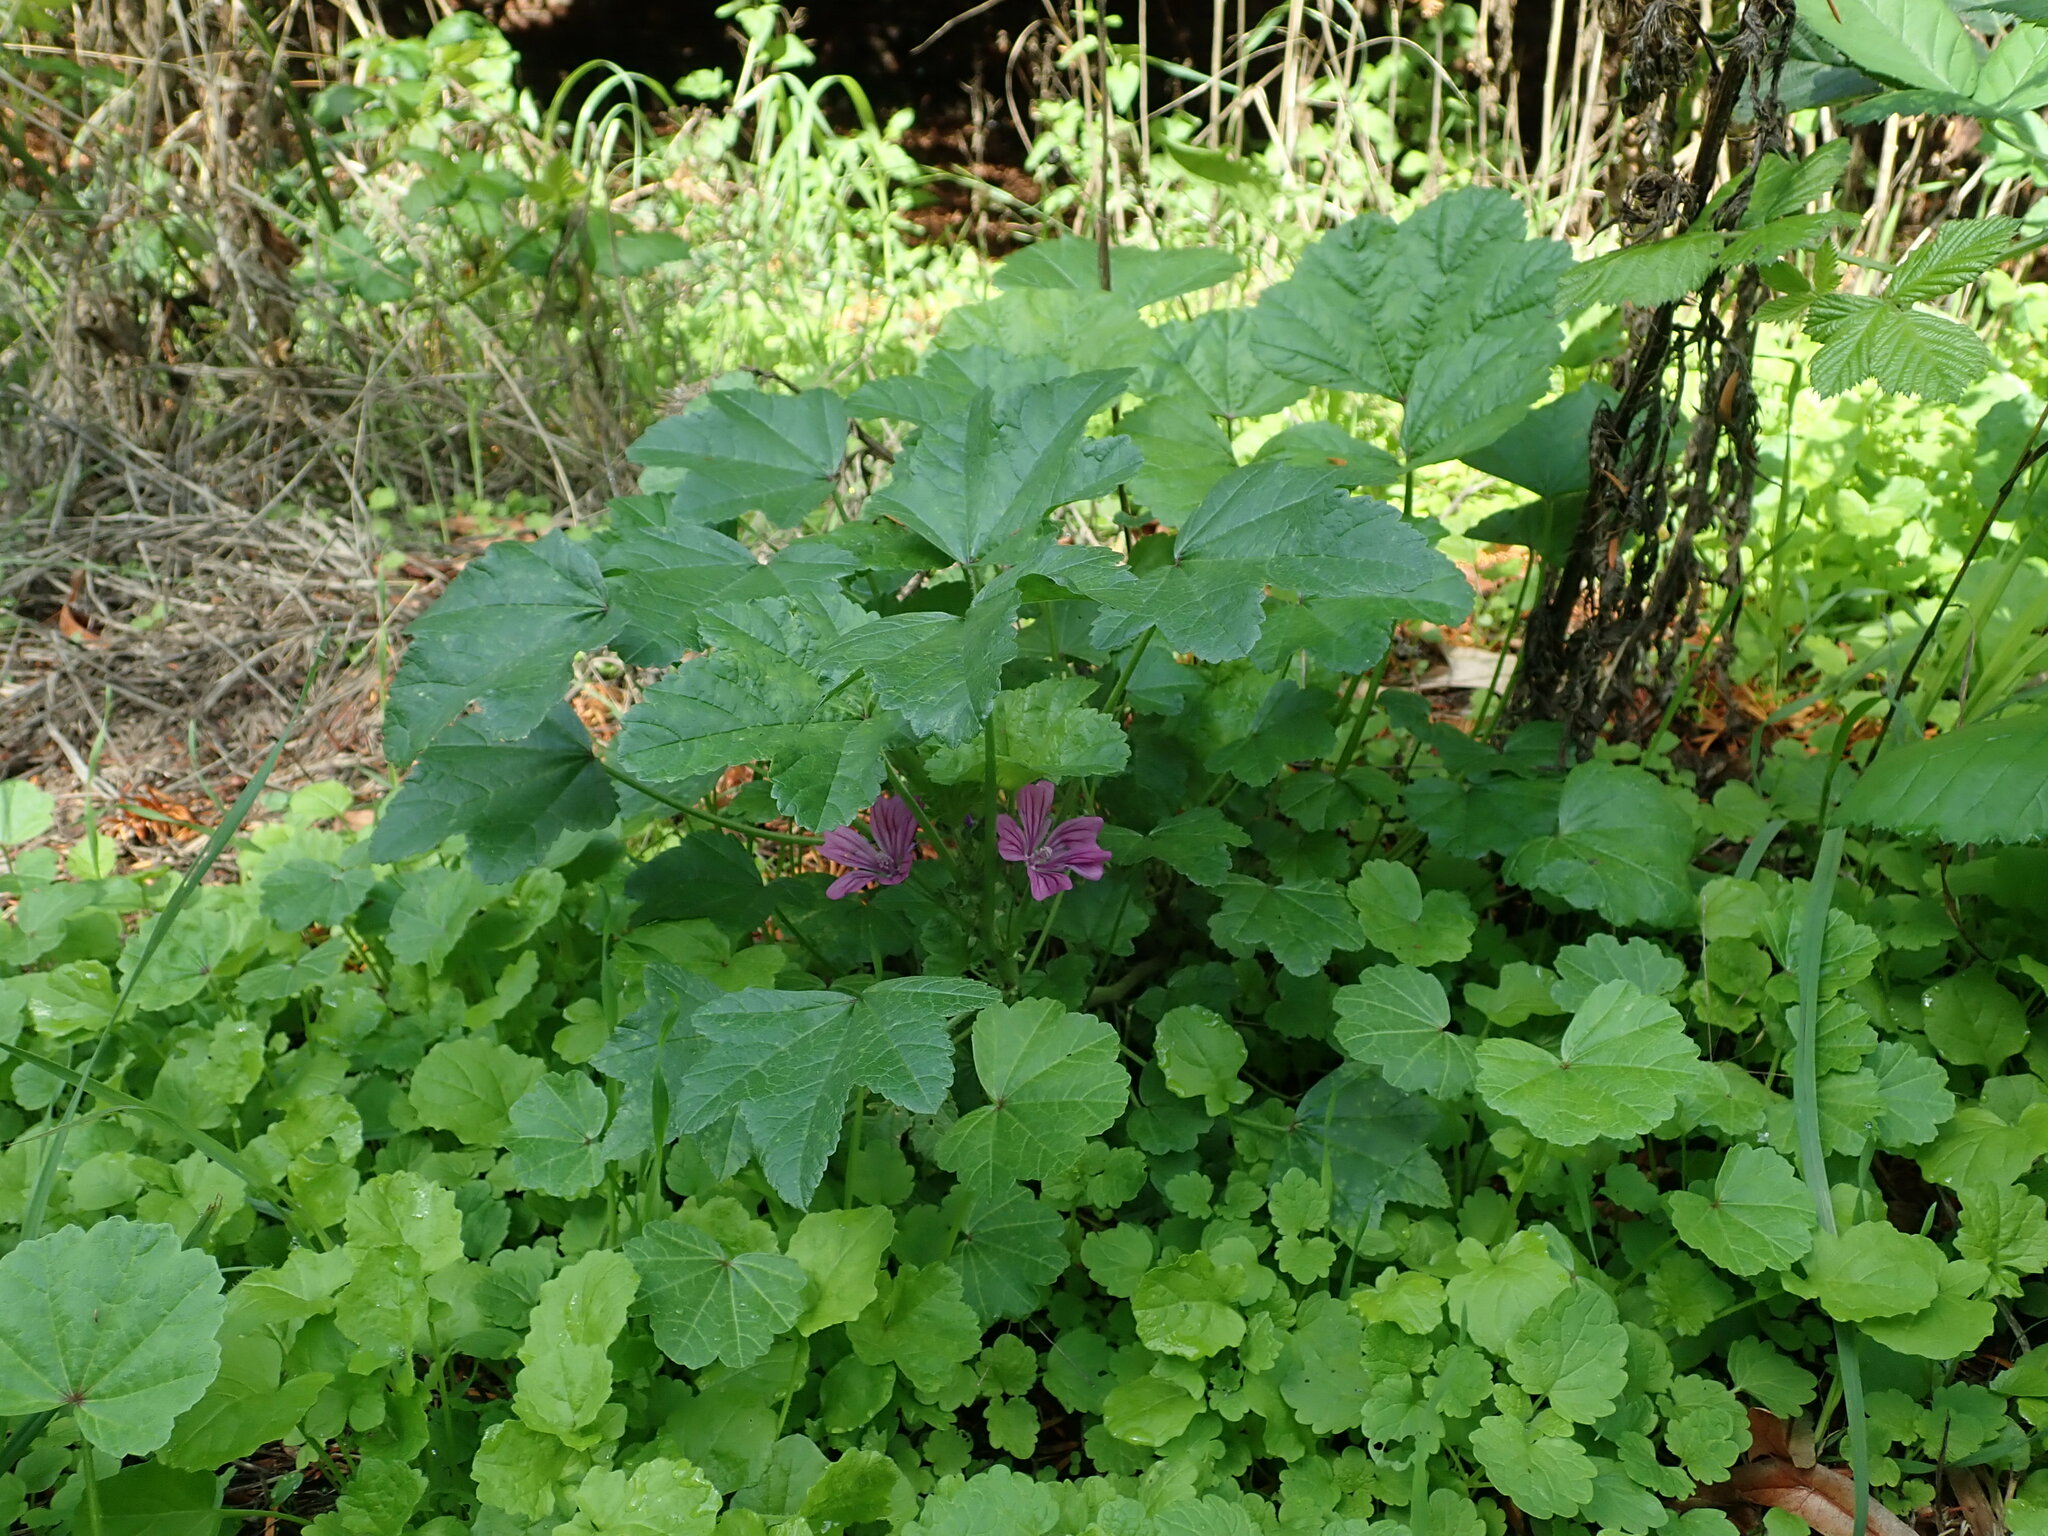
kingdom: Plantae
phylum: Tracheophyta
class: Magnoliopsida
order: Malvales
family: Malvaceae
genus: Malva
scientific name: Malva sylvestris
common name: Common mallow
